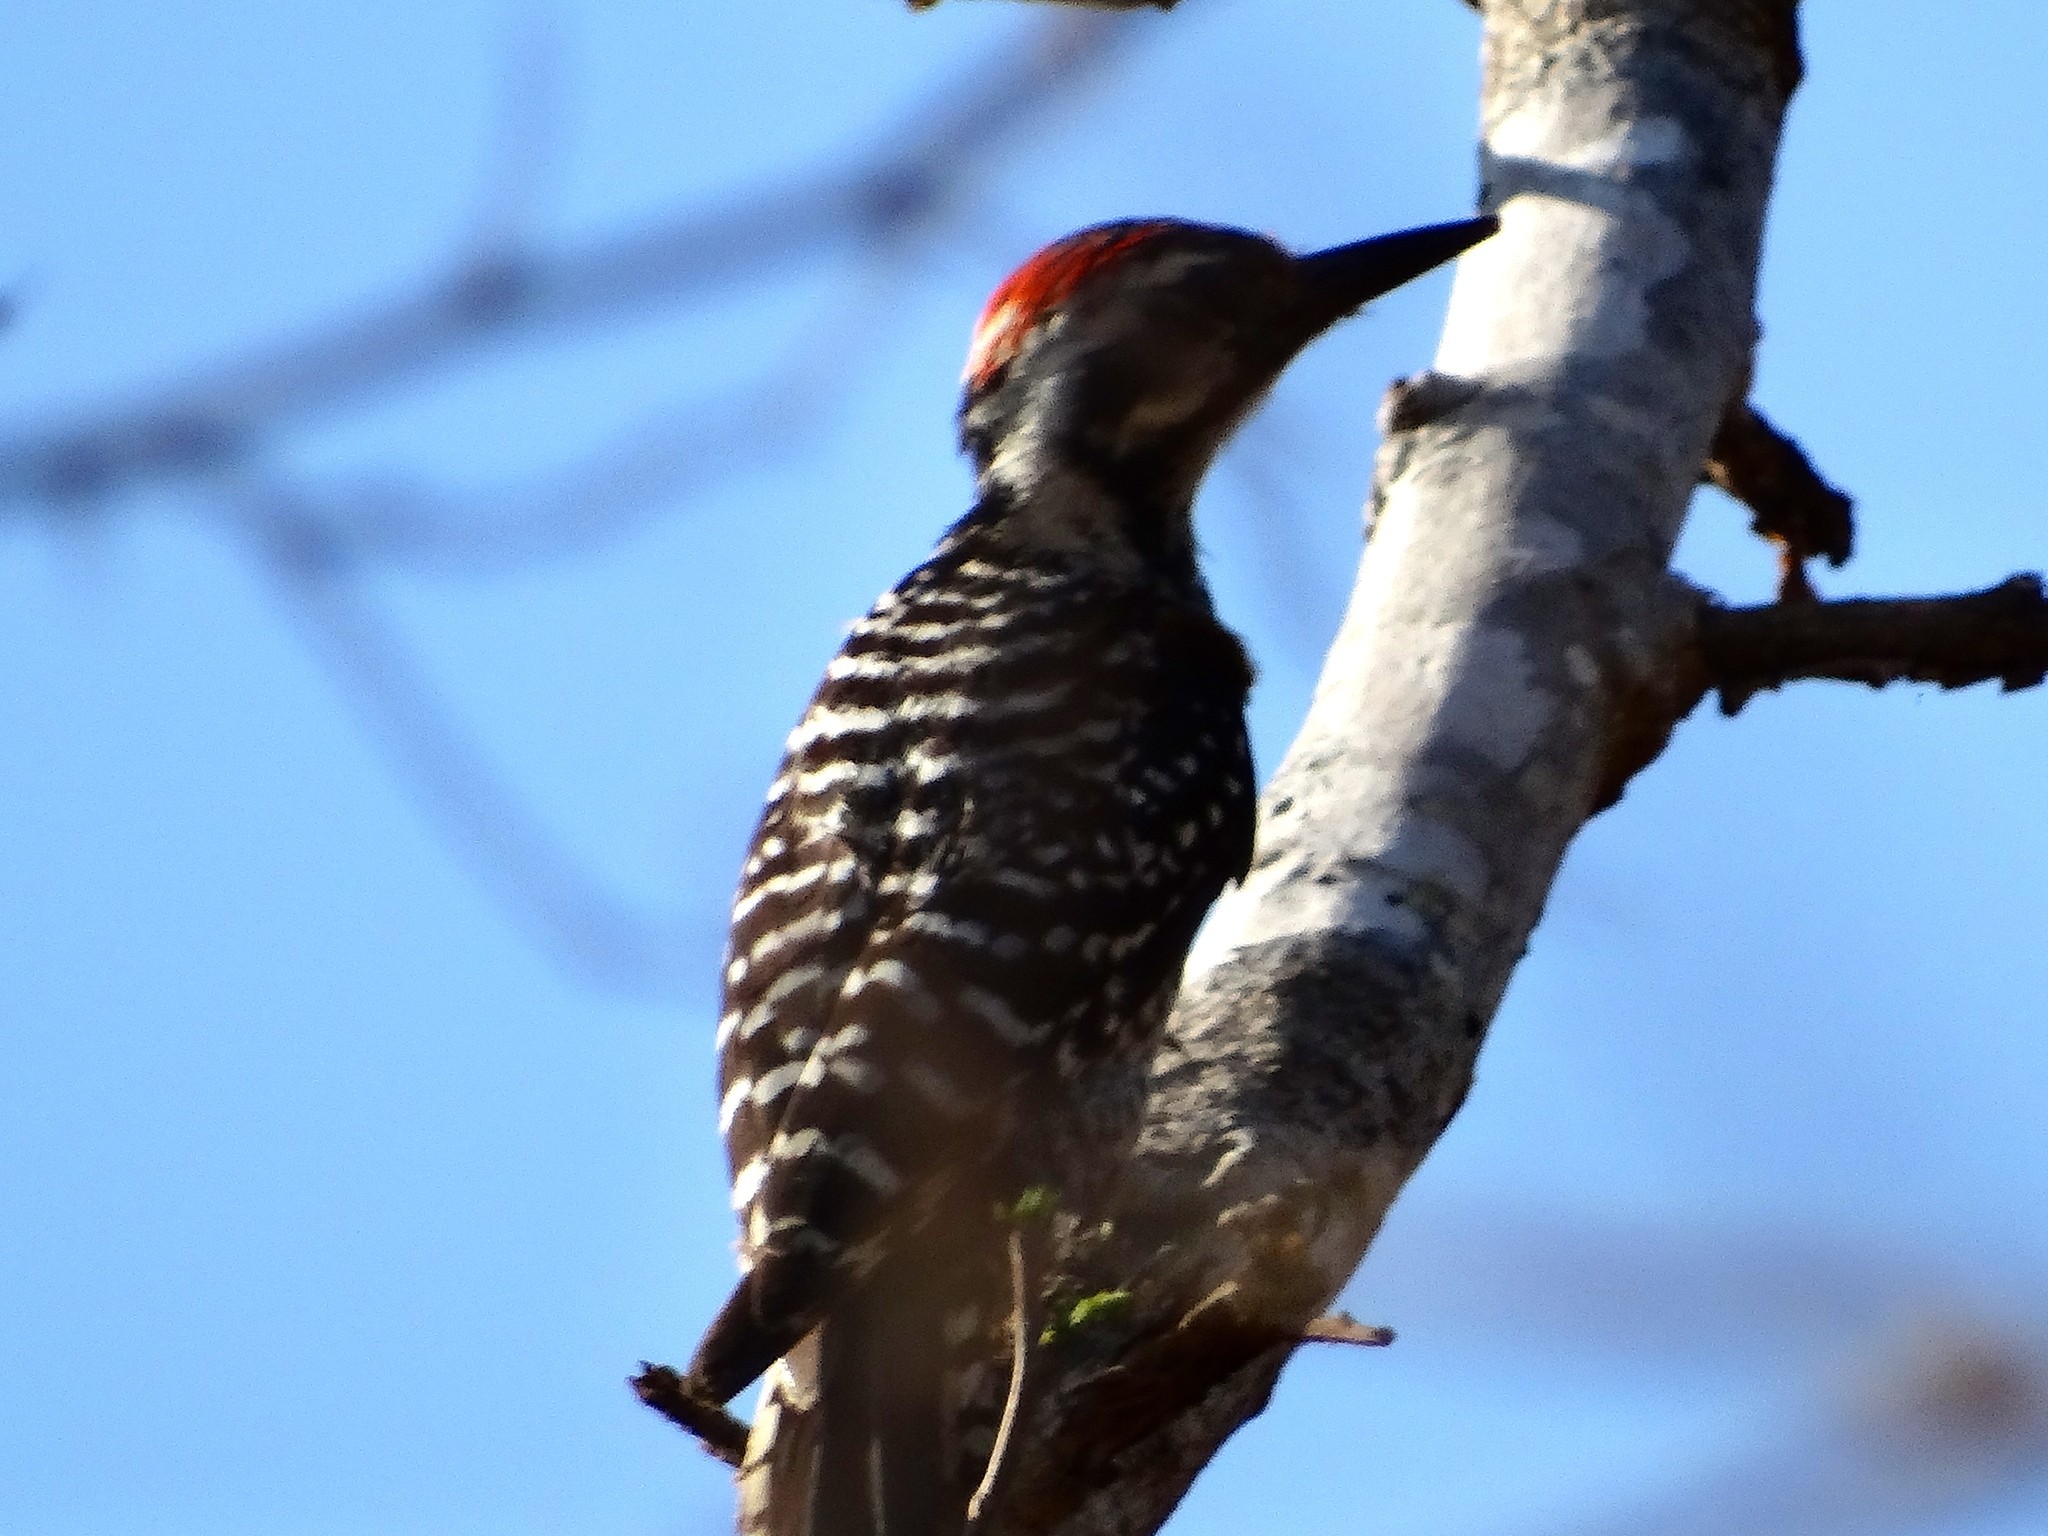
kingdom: Animalia
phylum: Chordata
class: Aves
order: Piciformes
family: Picidae
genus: Dryobates
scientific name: Dryobates scalaris
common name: Ladder-backed woodpecker
